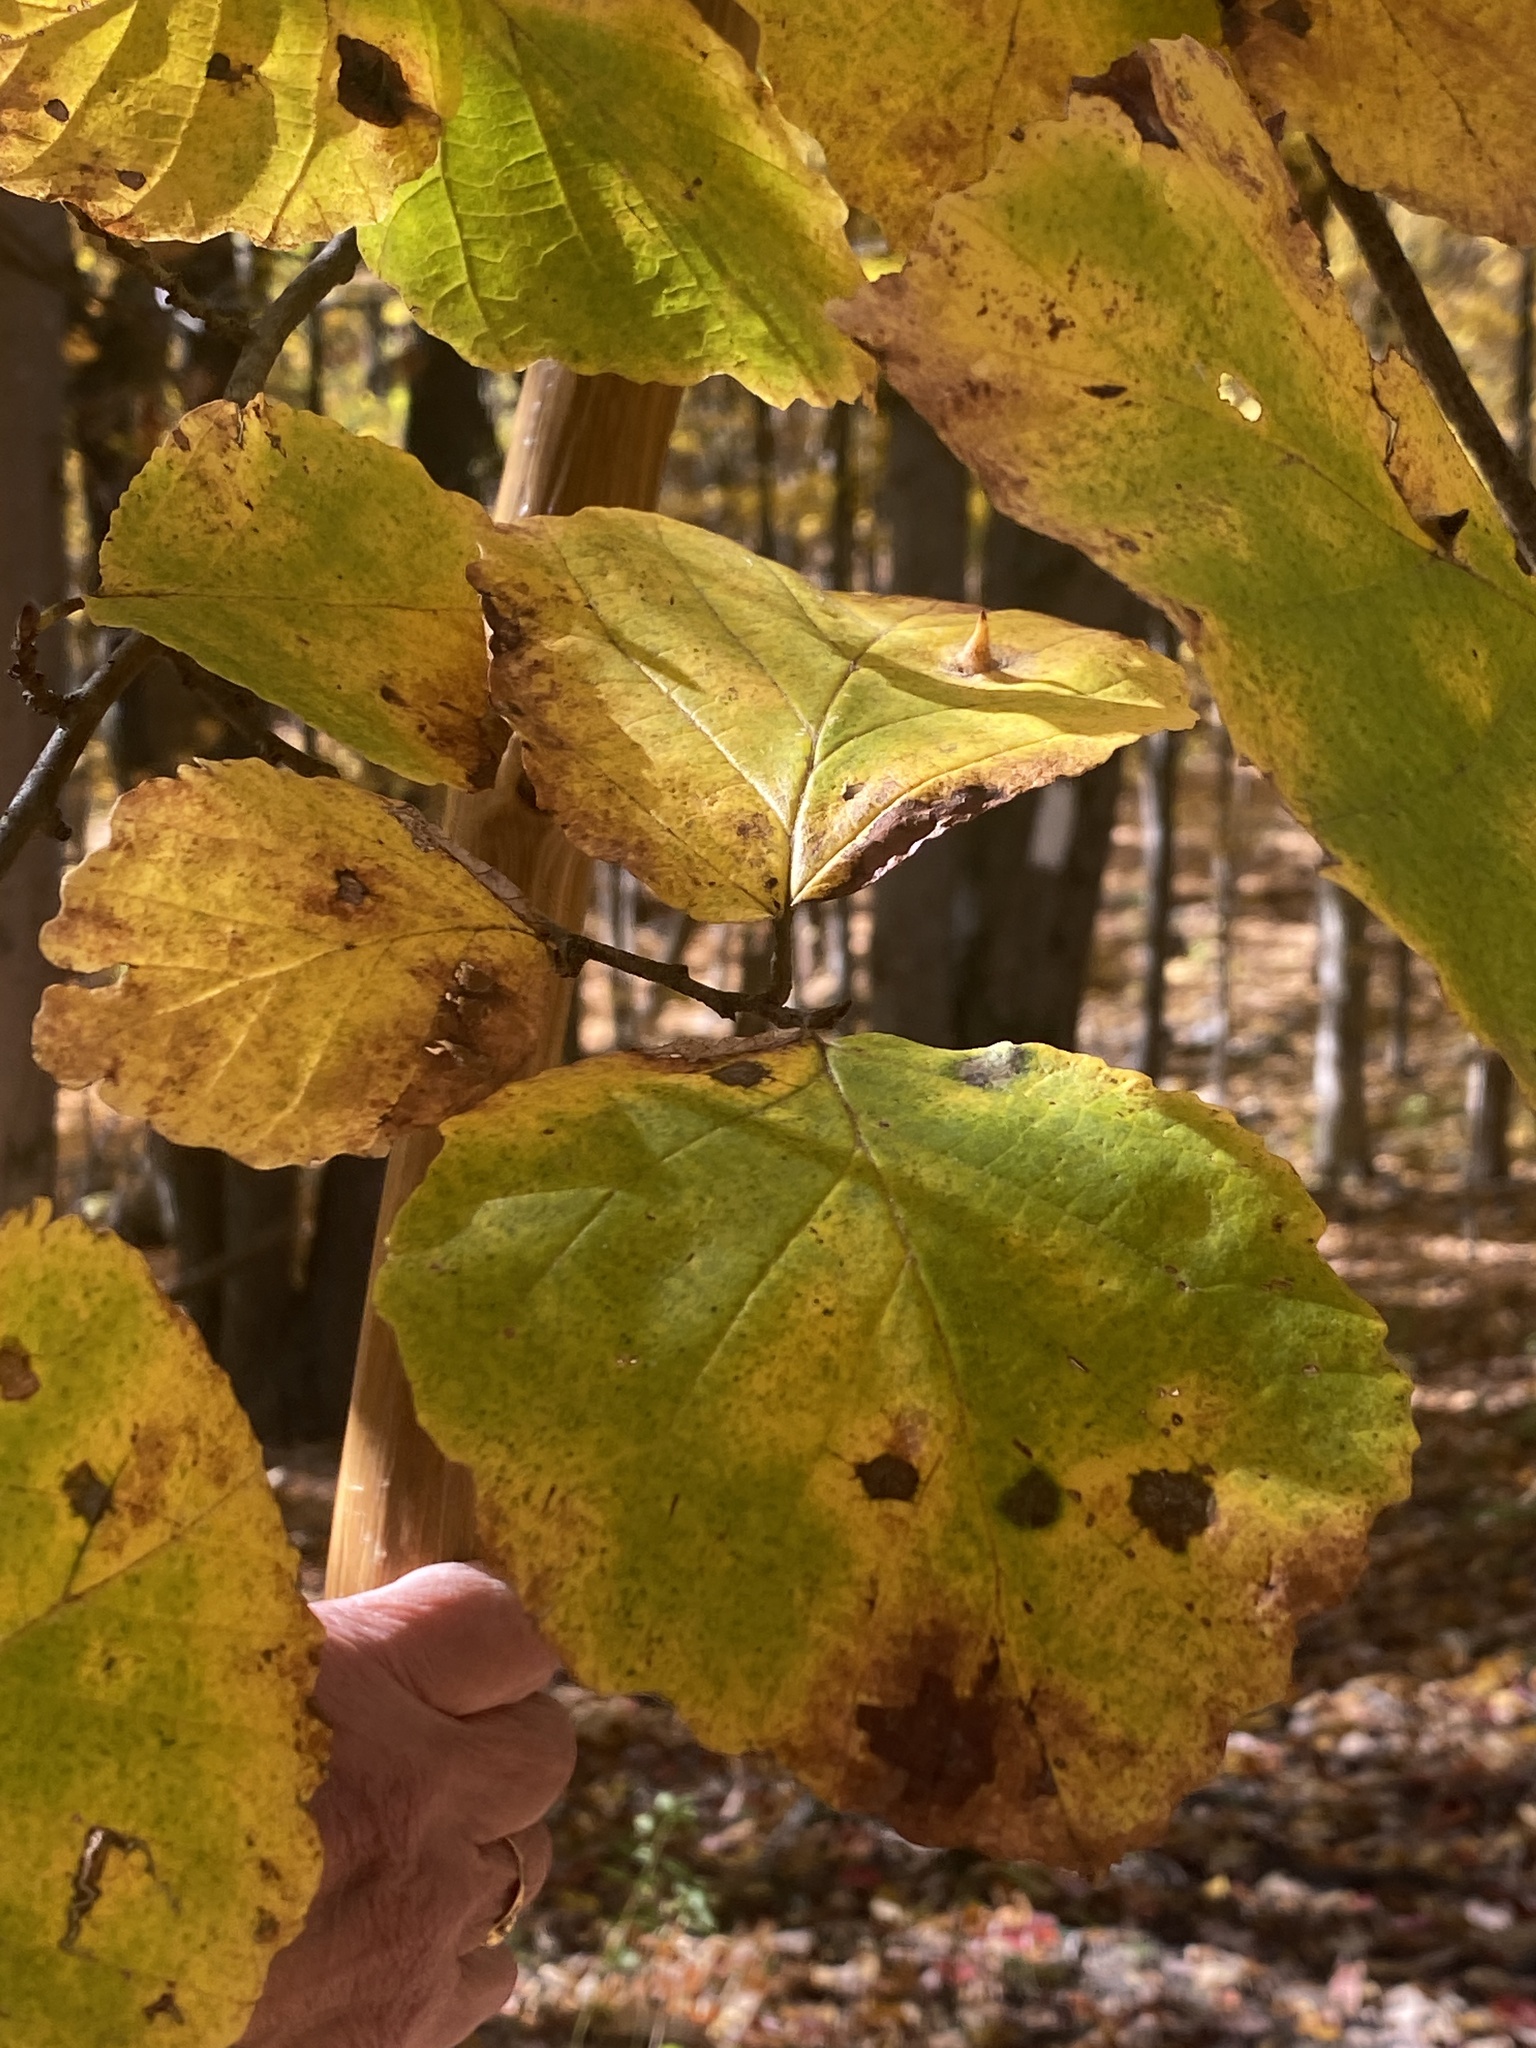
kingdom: Plantae
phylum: Tracheophyta
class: Magnoliopsida
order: Saxifragales
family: Hamamelidaceae
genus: Hamamelis
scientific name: Hamamelis virginiana
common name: Witch-hazel
